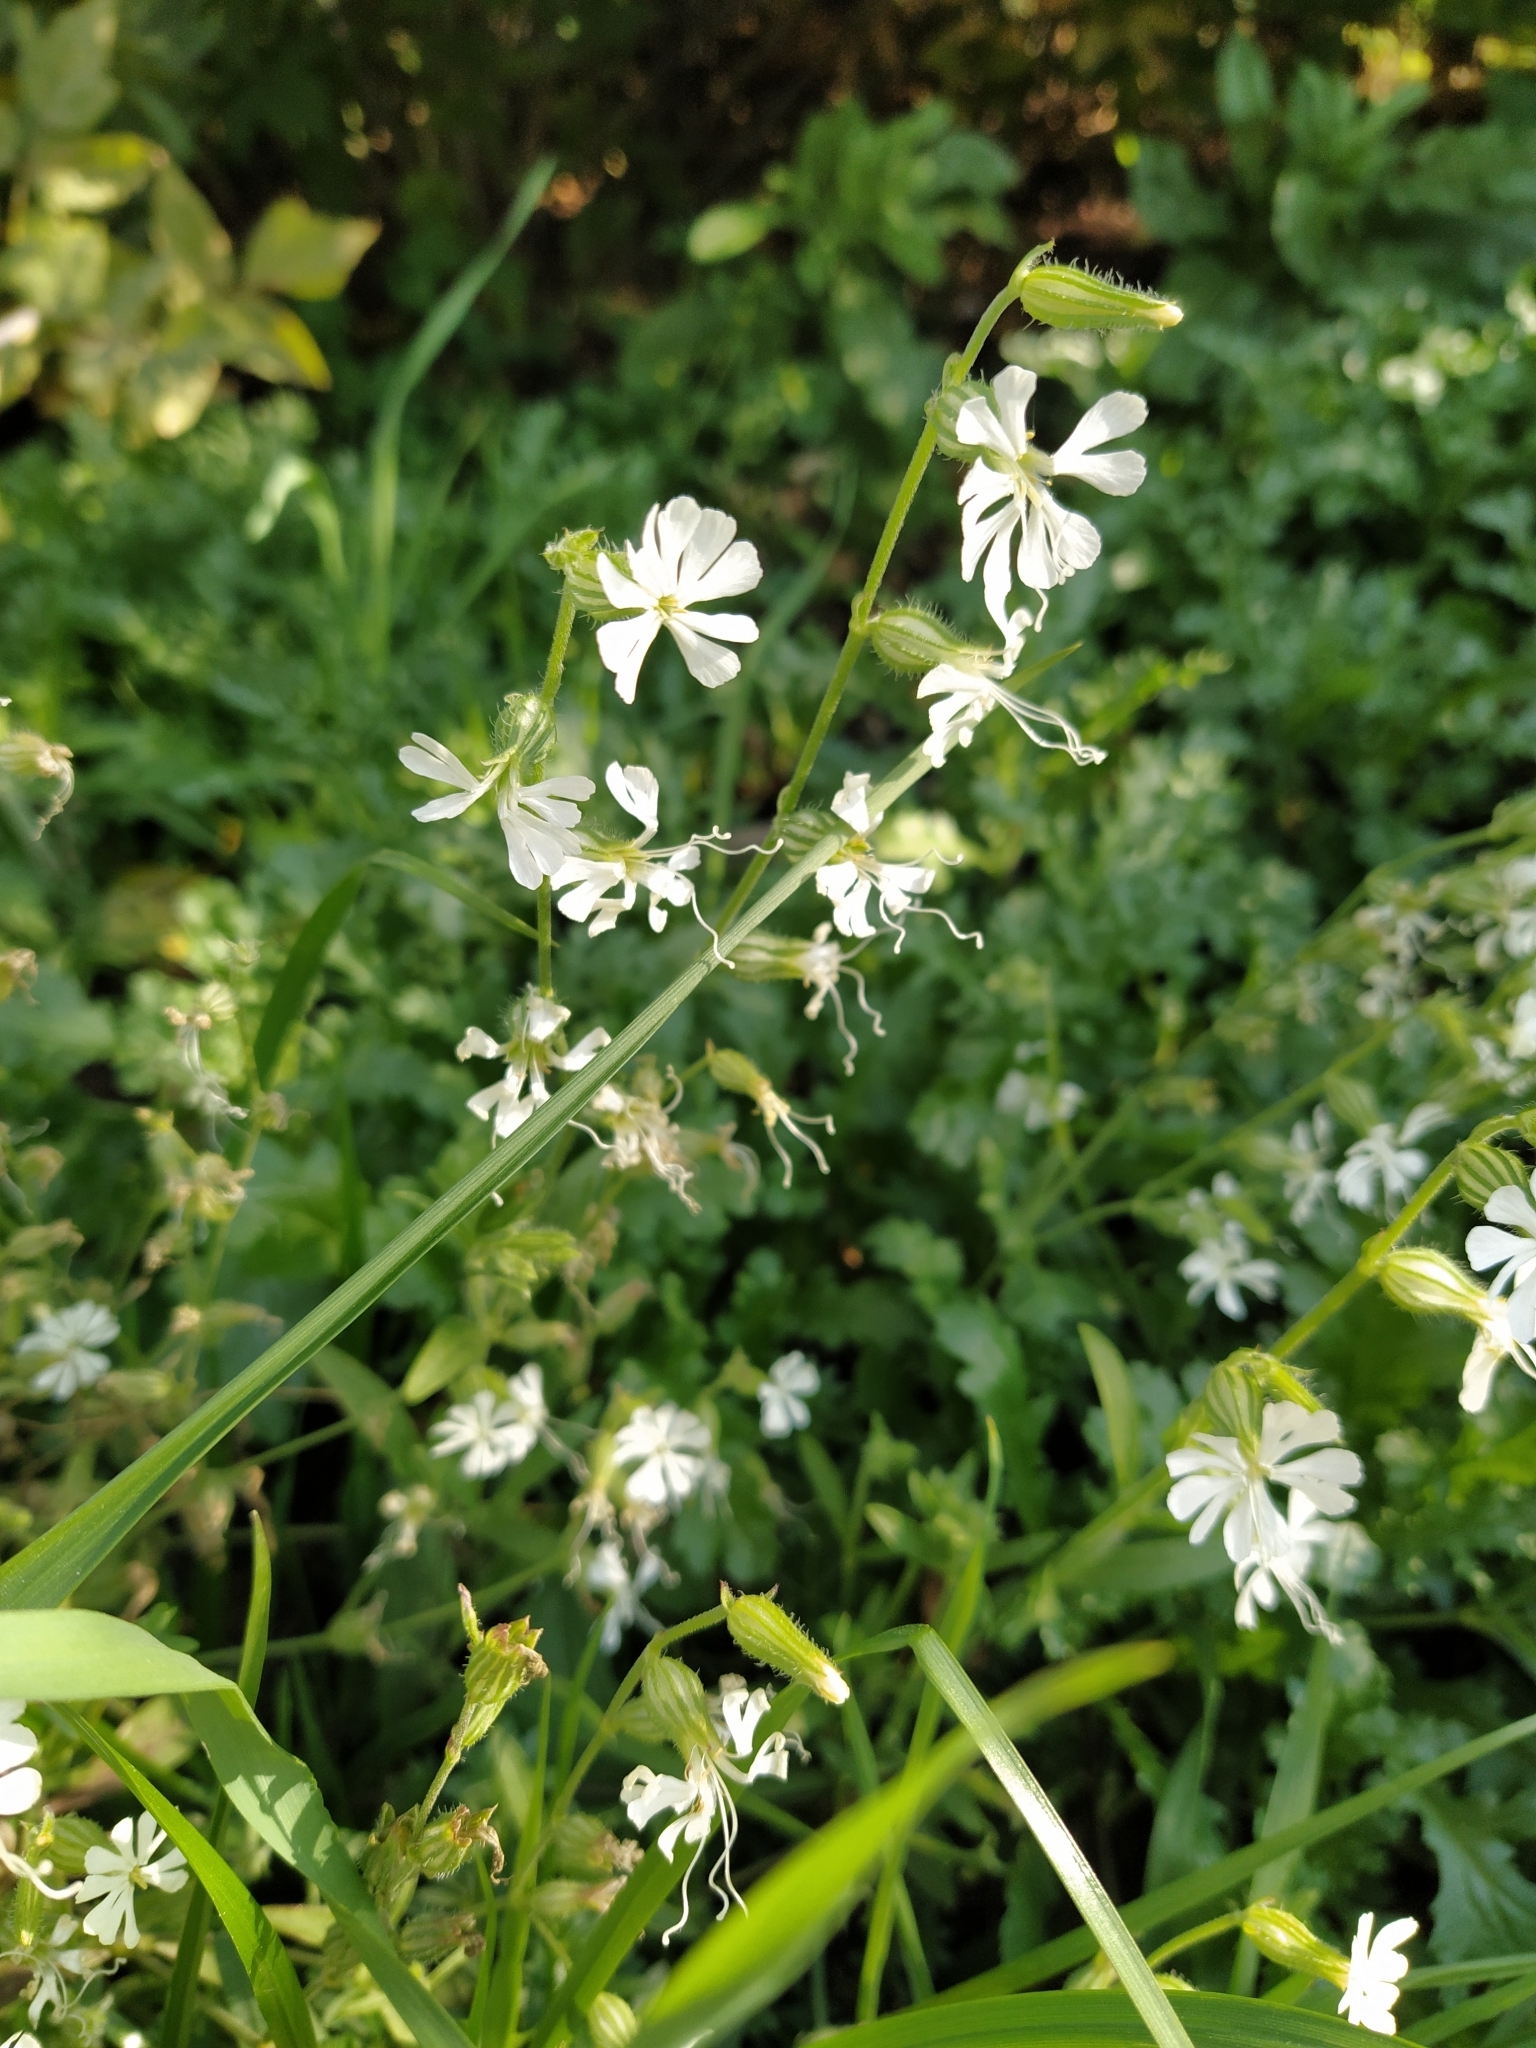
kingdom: Plantae
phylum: Tracheophyta
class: Magnoliopsida
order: Caryophyllales
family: Caryophyllaceae
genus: Silene
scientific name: Silene dichotoma
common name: Forked catchfly
